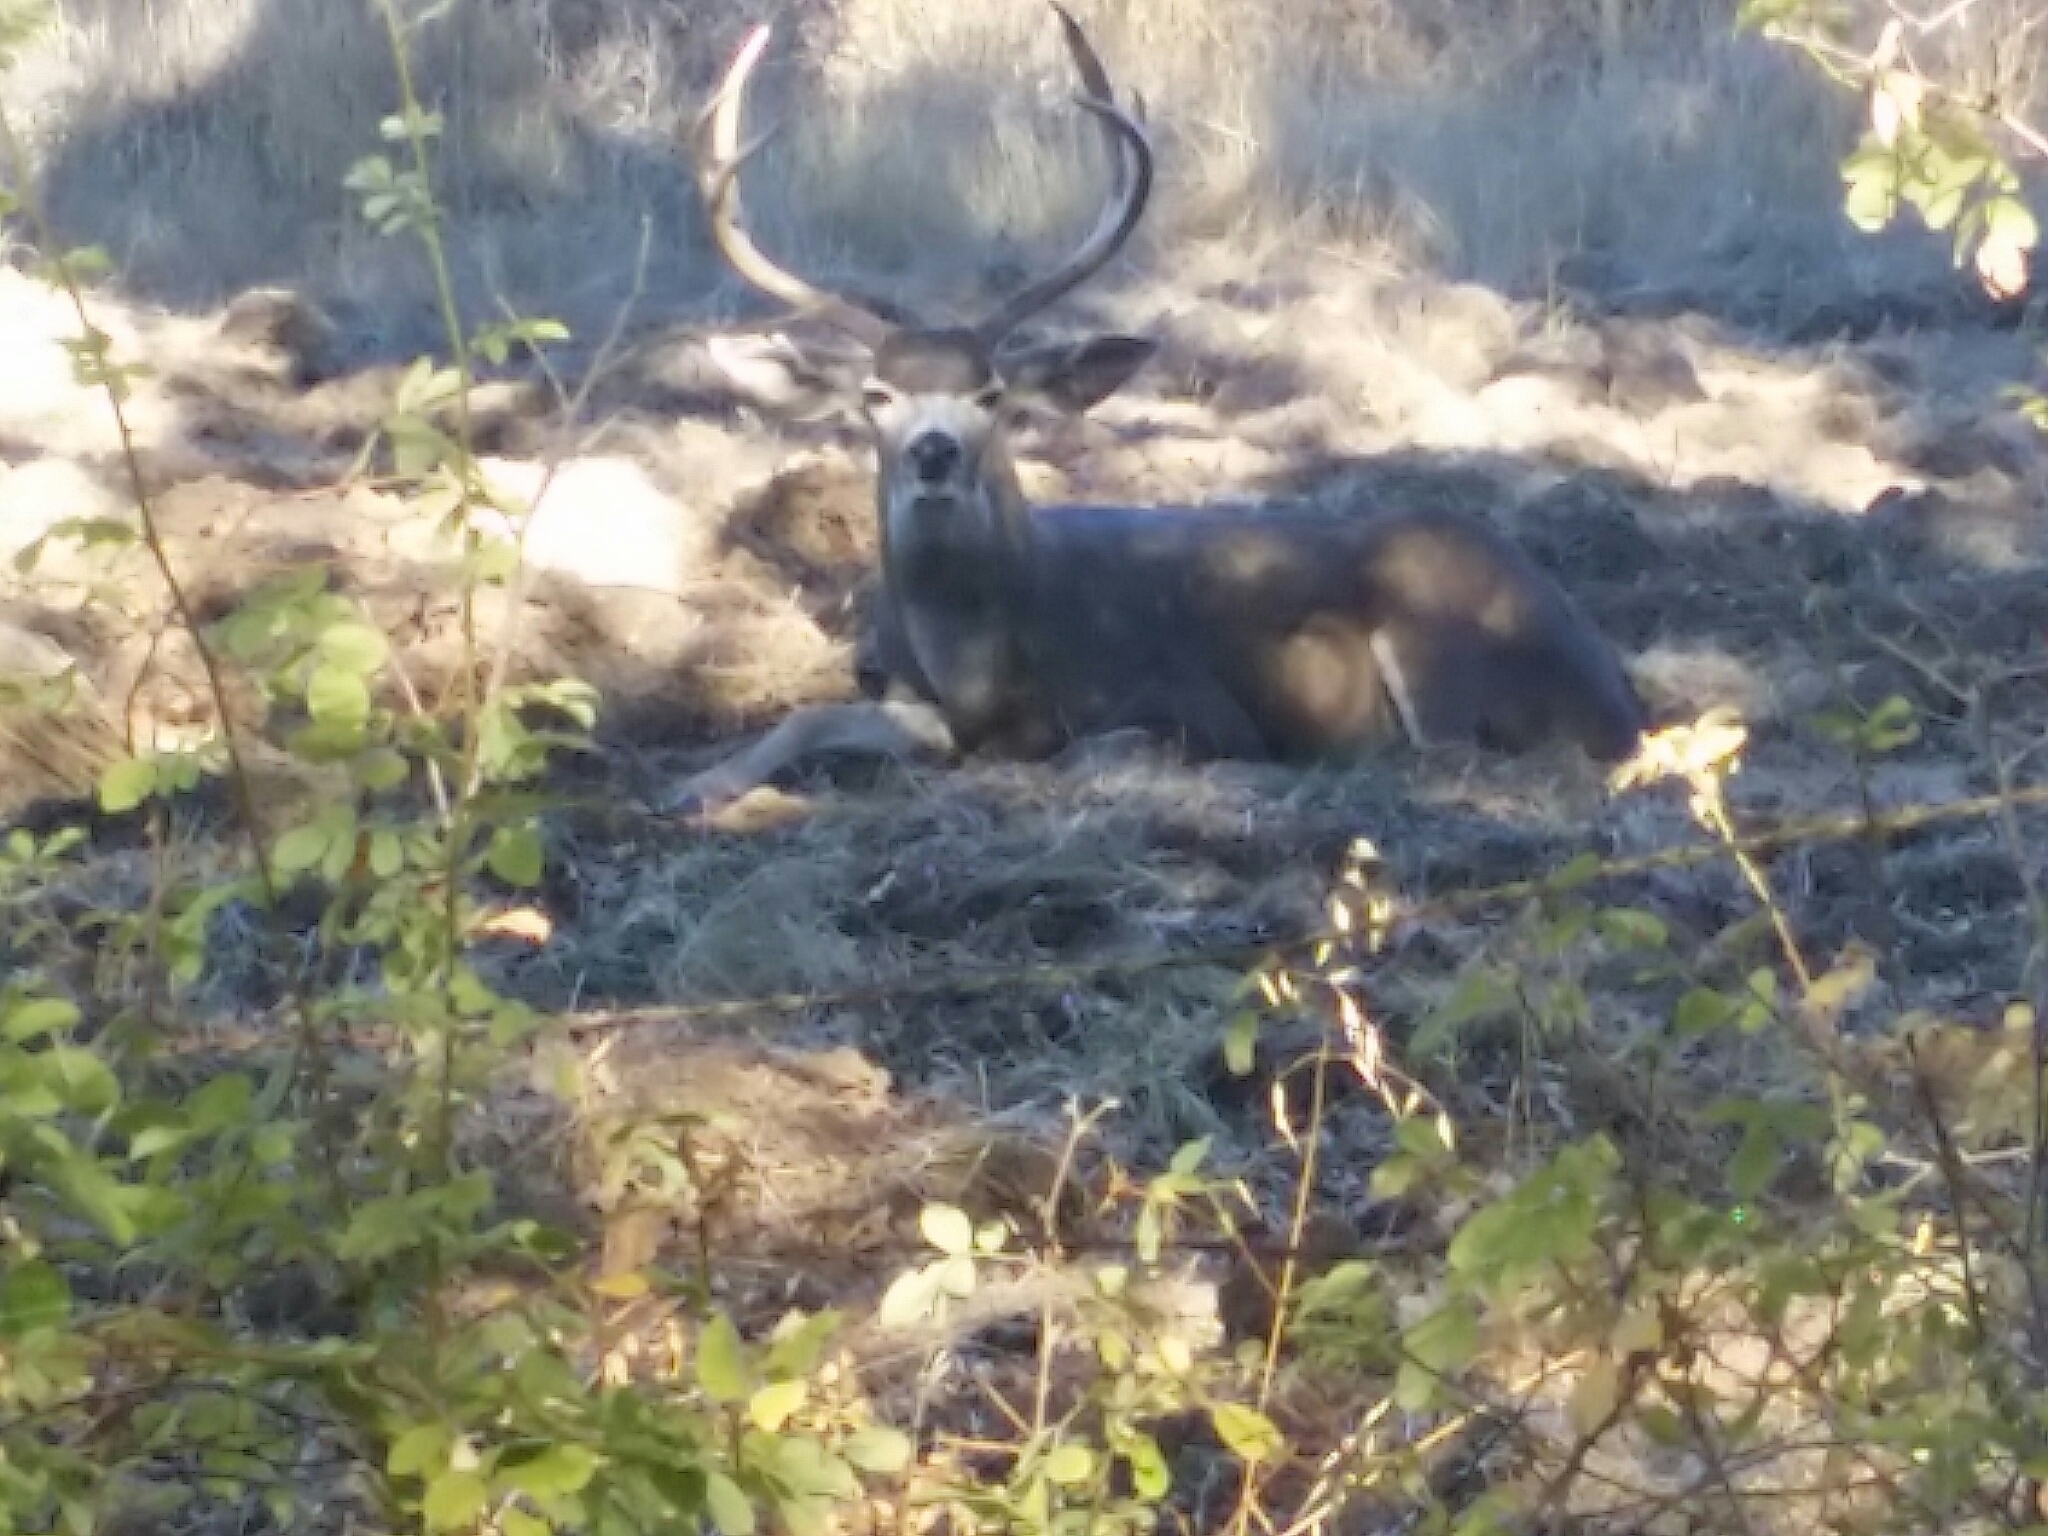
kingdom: Animalia
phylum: Chordata
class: Mammalia
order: Artiodactyla
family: Cervidae
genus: Odocoileus
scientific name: Odocoileus hemionus
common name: Mule deer
